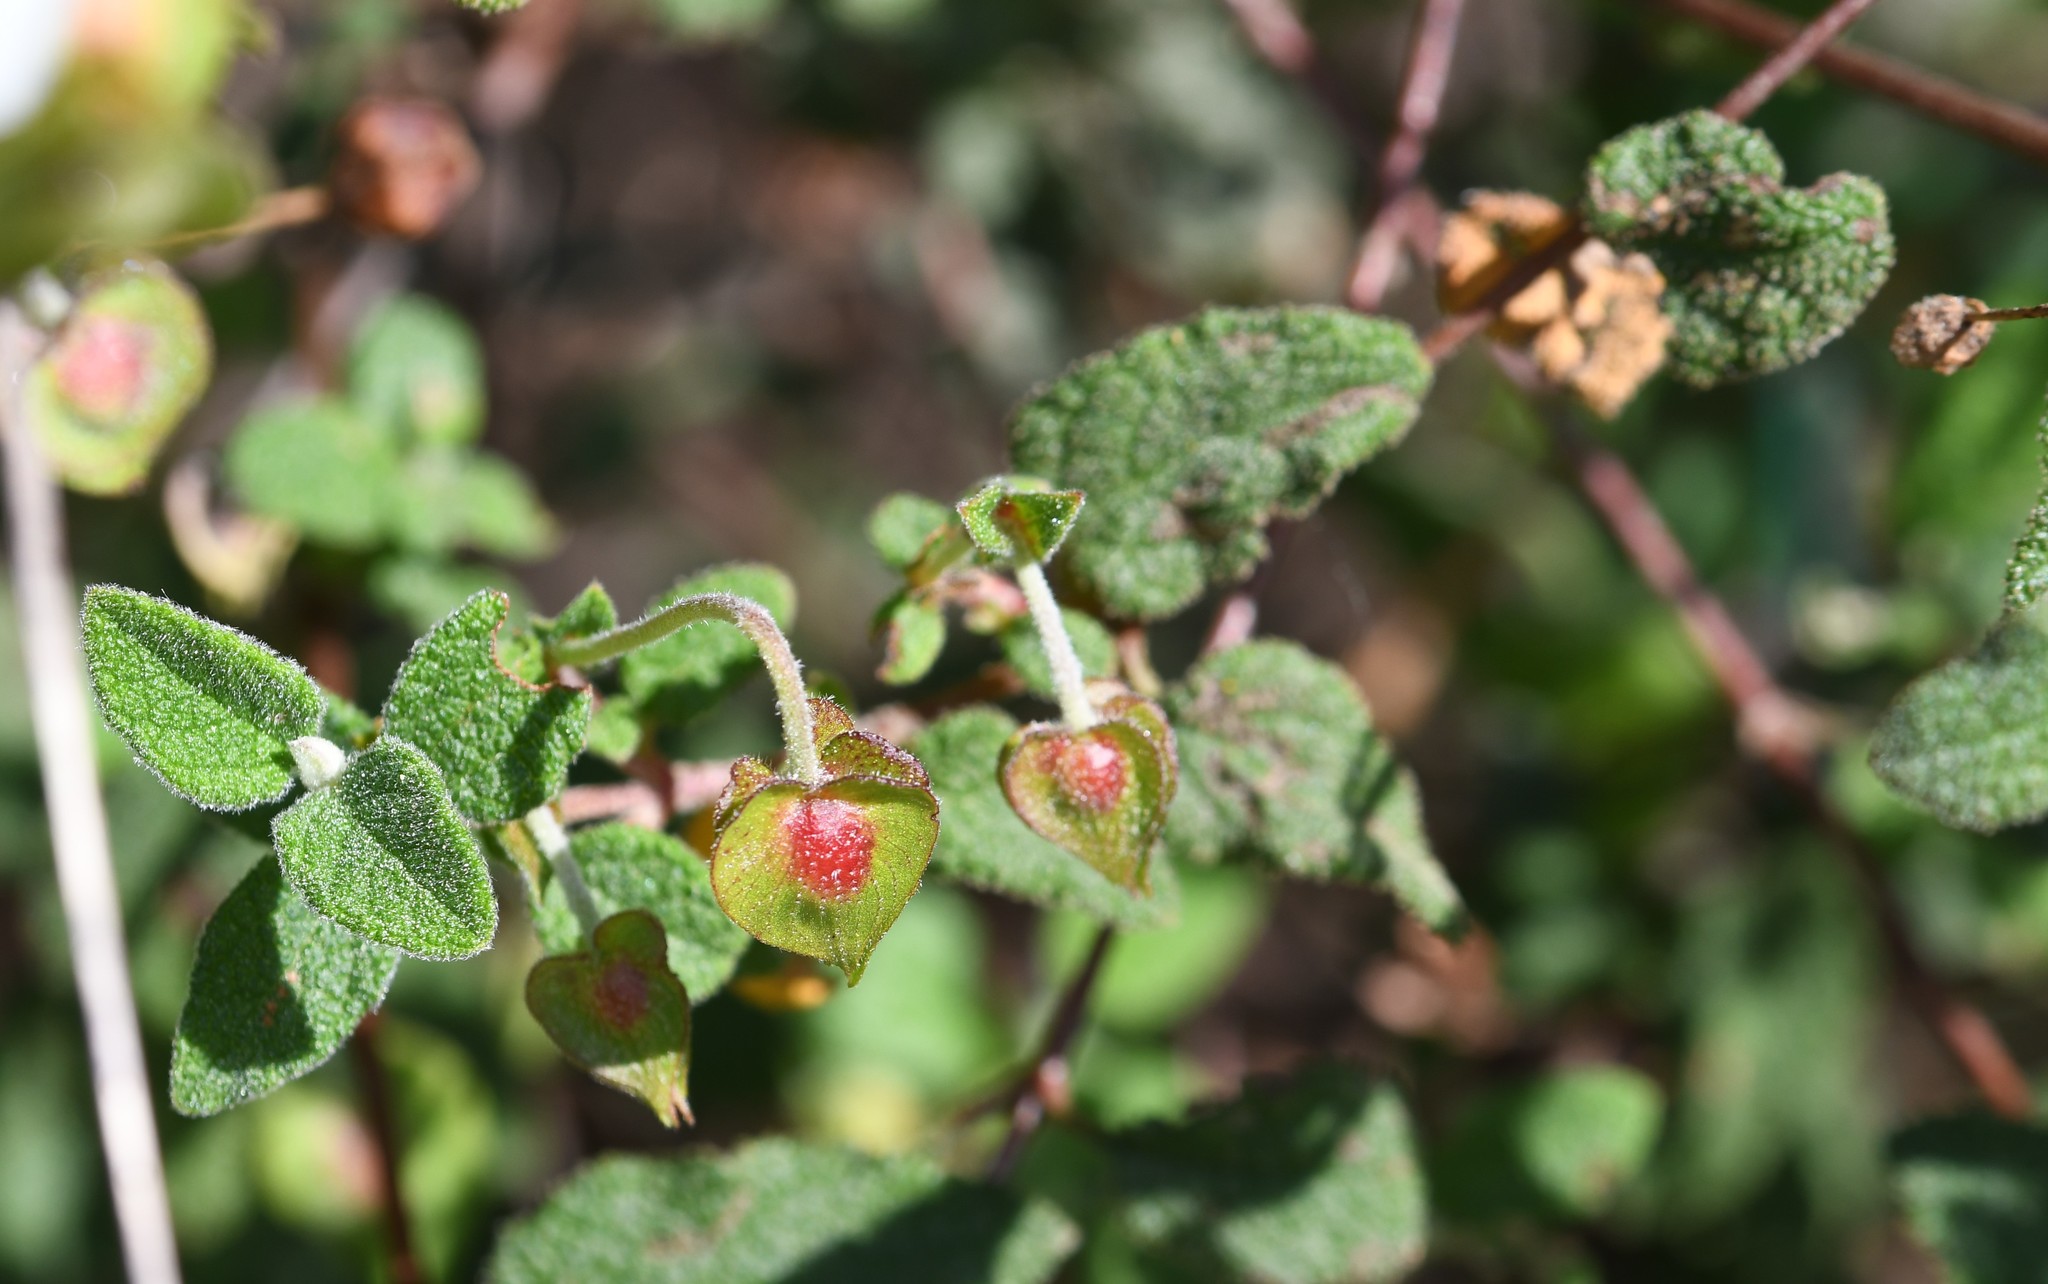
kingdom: Plantae
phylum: Tracheophyta
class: Magnoliopsida
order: Malvales
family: Cistaceae
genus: Cistus
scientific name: Cistus salviifolius
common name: Salvia cistus
